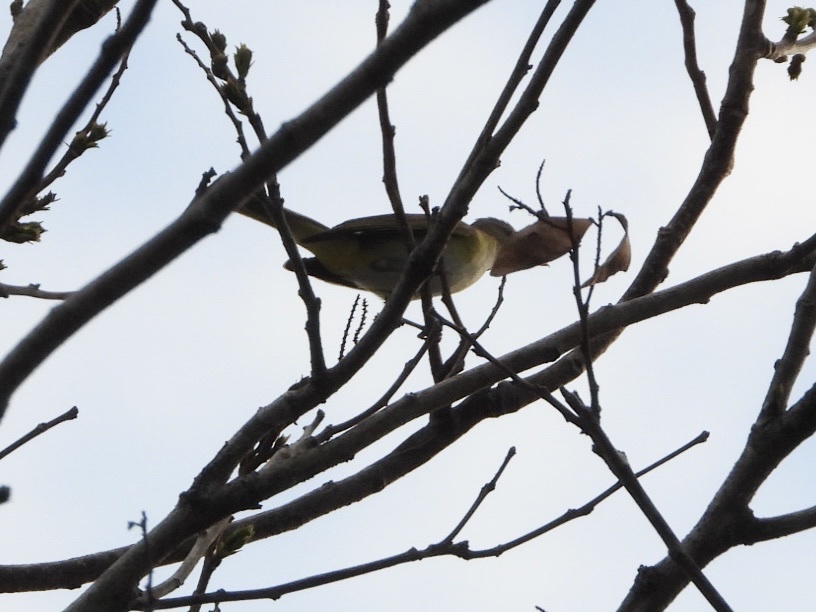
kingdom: Animalia
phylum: Chordata
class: Aves
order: Passeriformes
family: Vireonidae
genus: Vireo
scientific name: Vireo flavoviridis
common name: Yellow-green vireo
